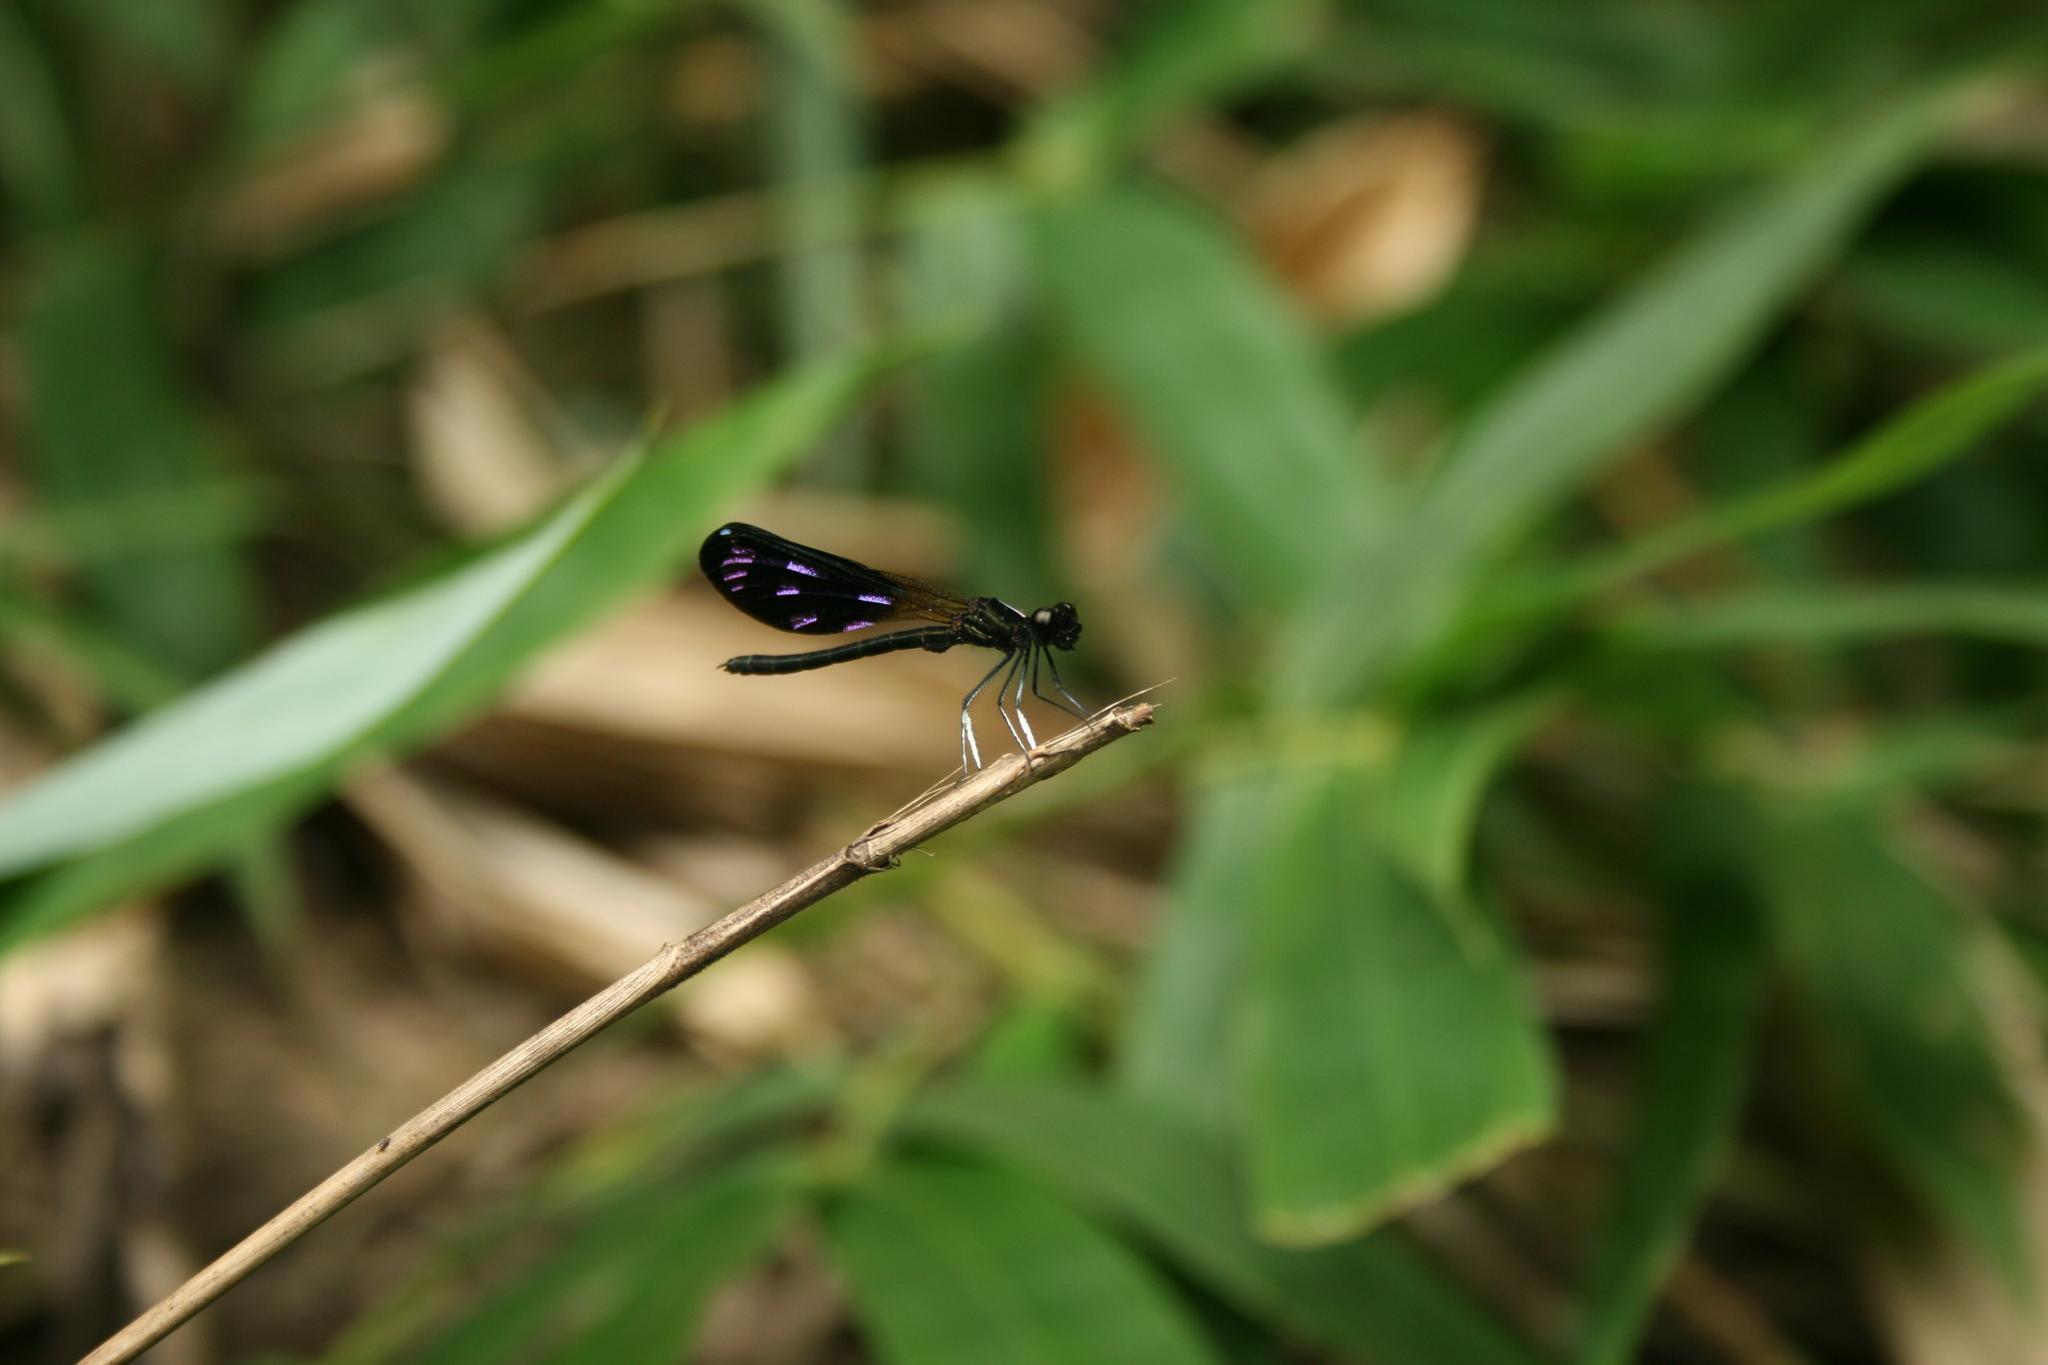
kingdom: Animalia
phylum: Arthropoda
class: Insecta
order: Odonata
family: Chlorocyphidae
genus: Aristocypha
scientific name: Aristocypha quadrimaculata
